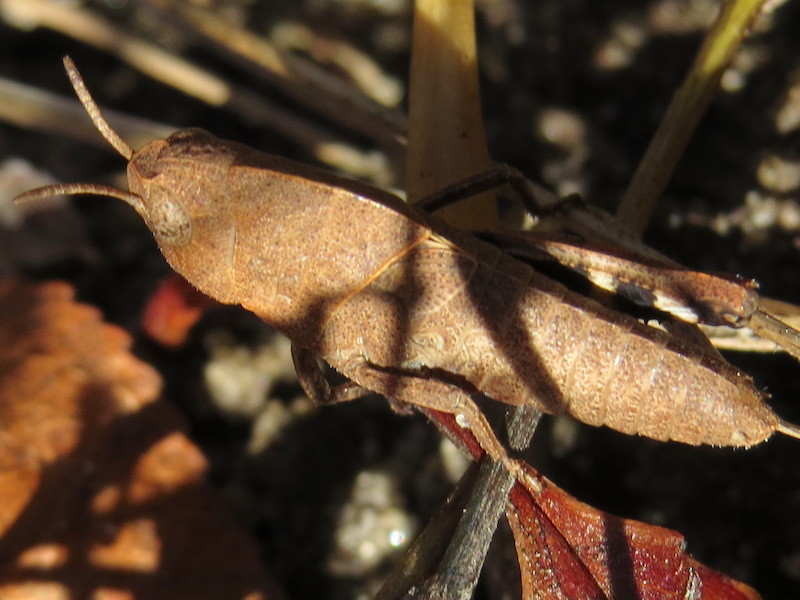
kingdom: Animalia
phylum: Arthropoda
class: Insecta
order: Orthoptera
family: Acrididae
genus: Arphia
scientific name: Arphia sulphurea
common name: Spring yellow-winged locust
